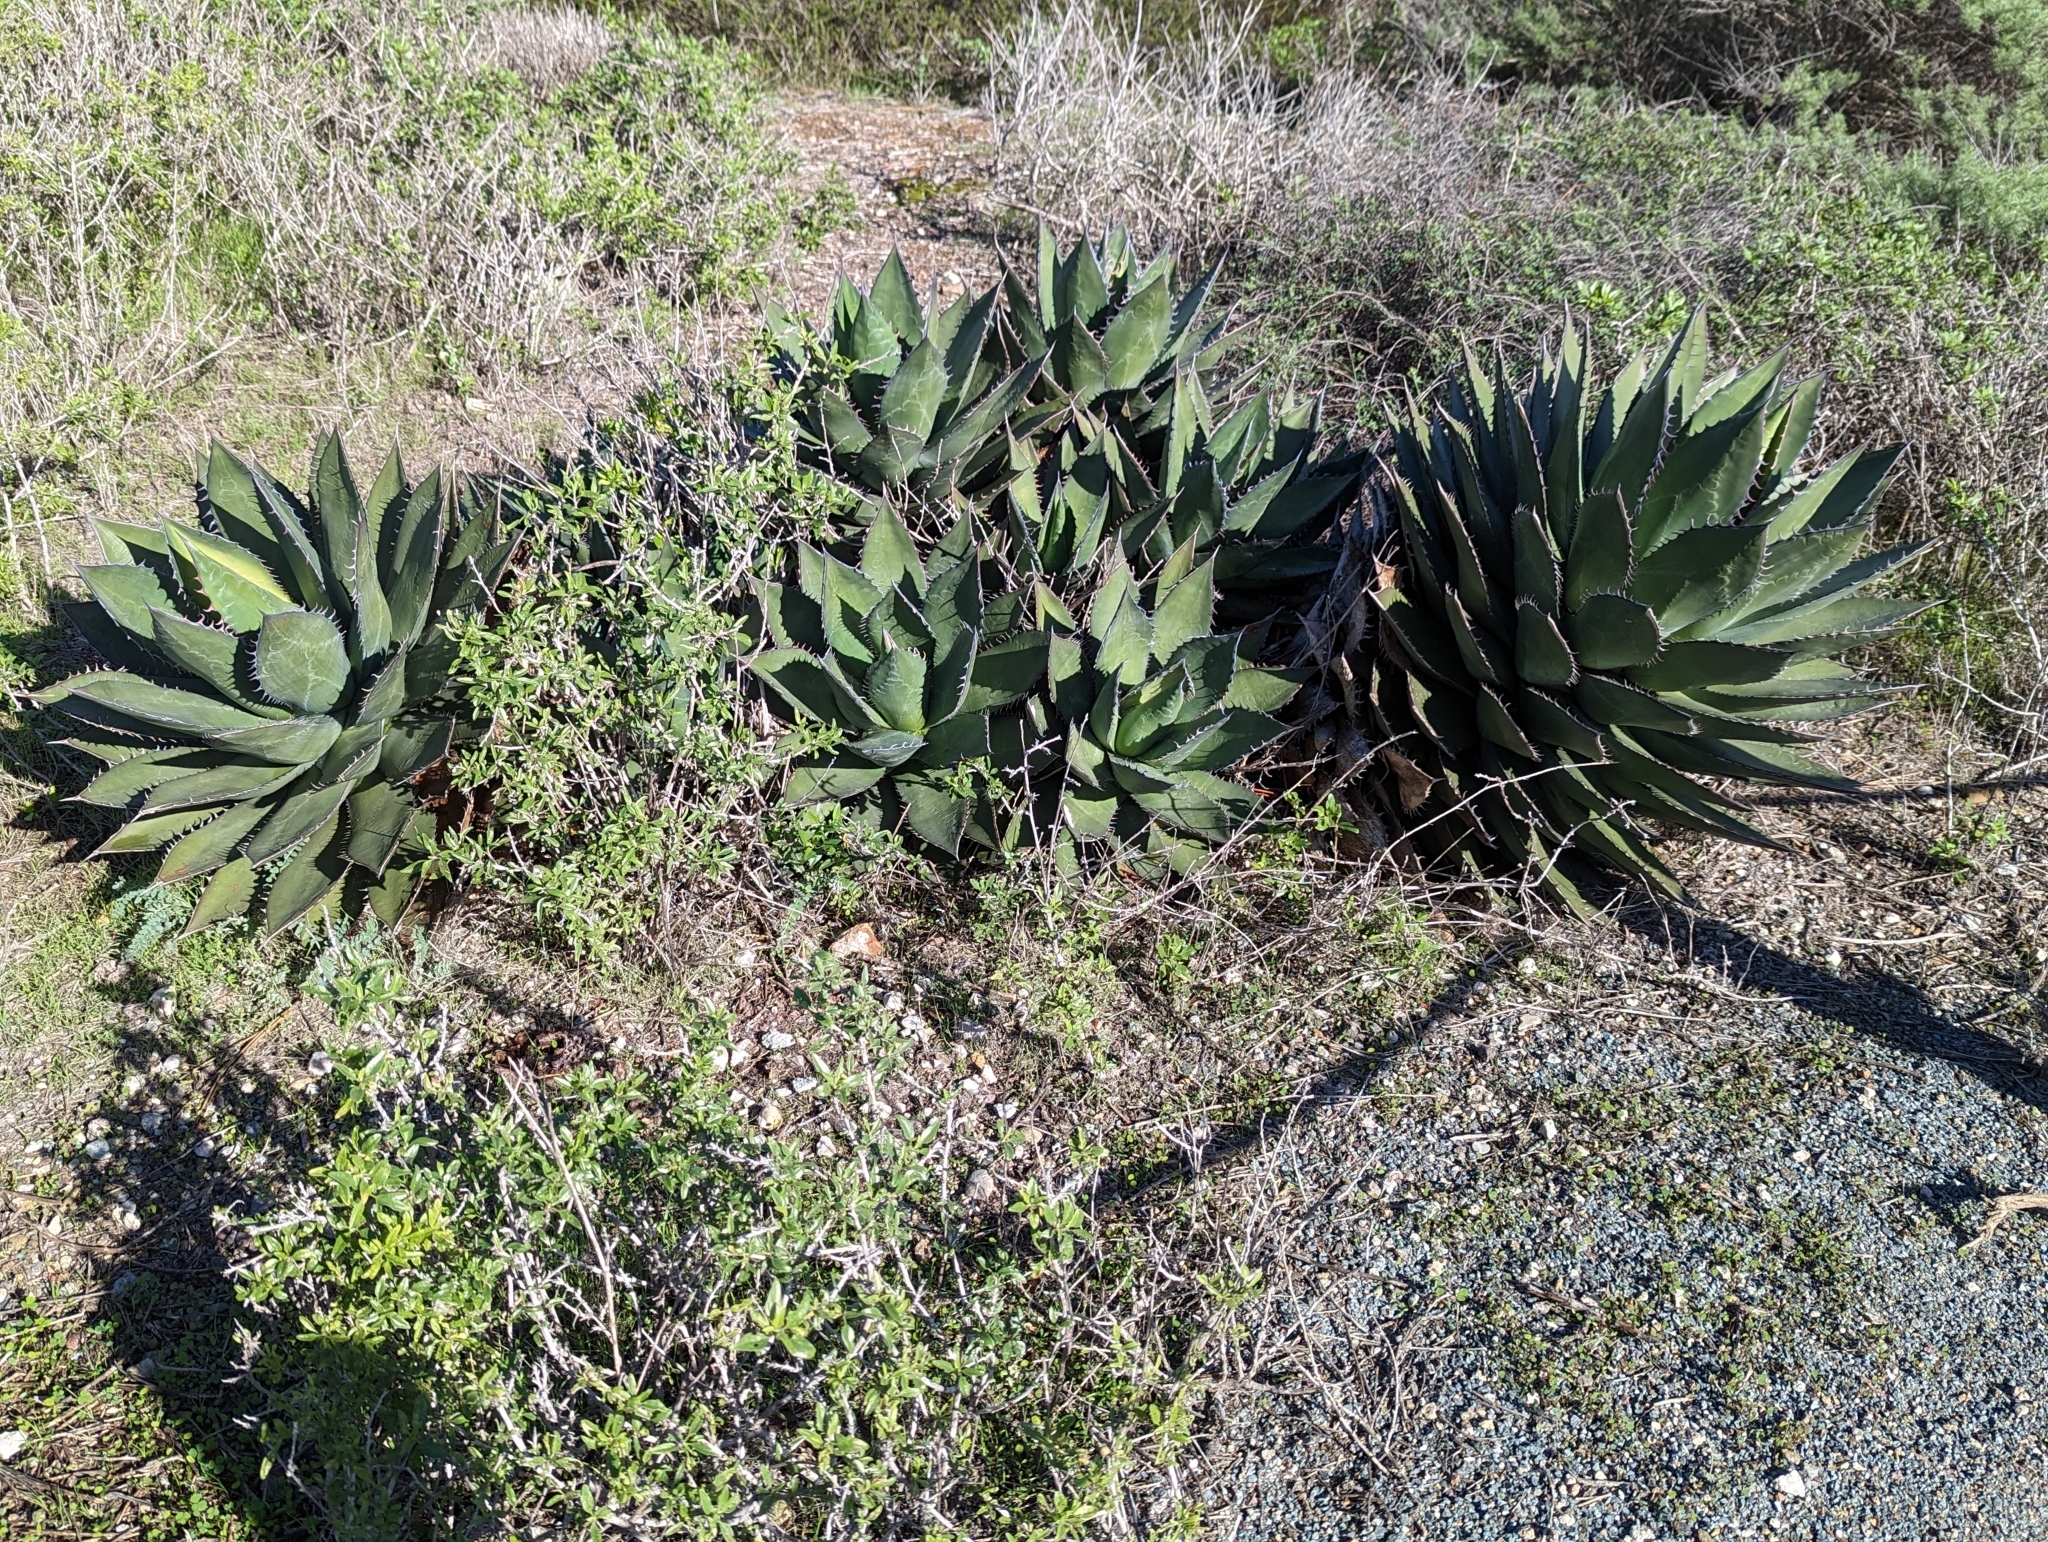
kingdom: Plantae
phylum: Tracheophyta
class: Liliopsida
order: Asparagales
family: Asparagaceae
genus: Agave
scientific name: Agave shawii
